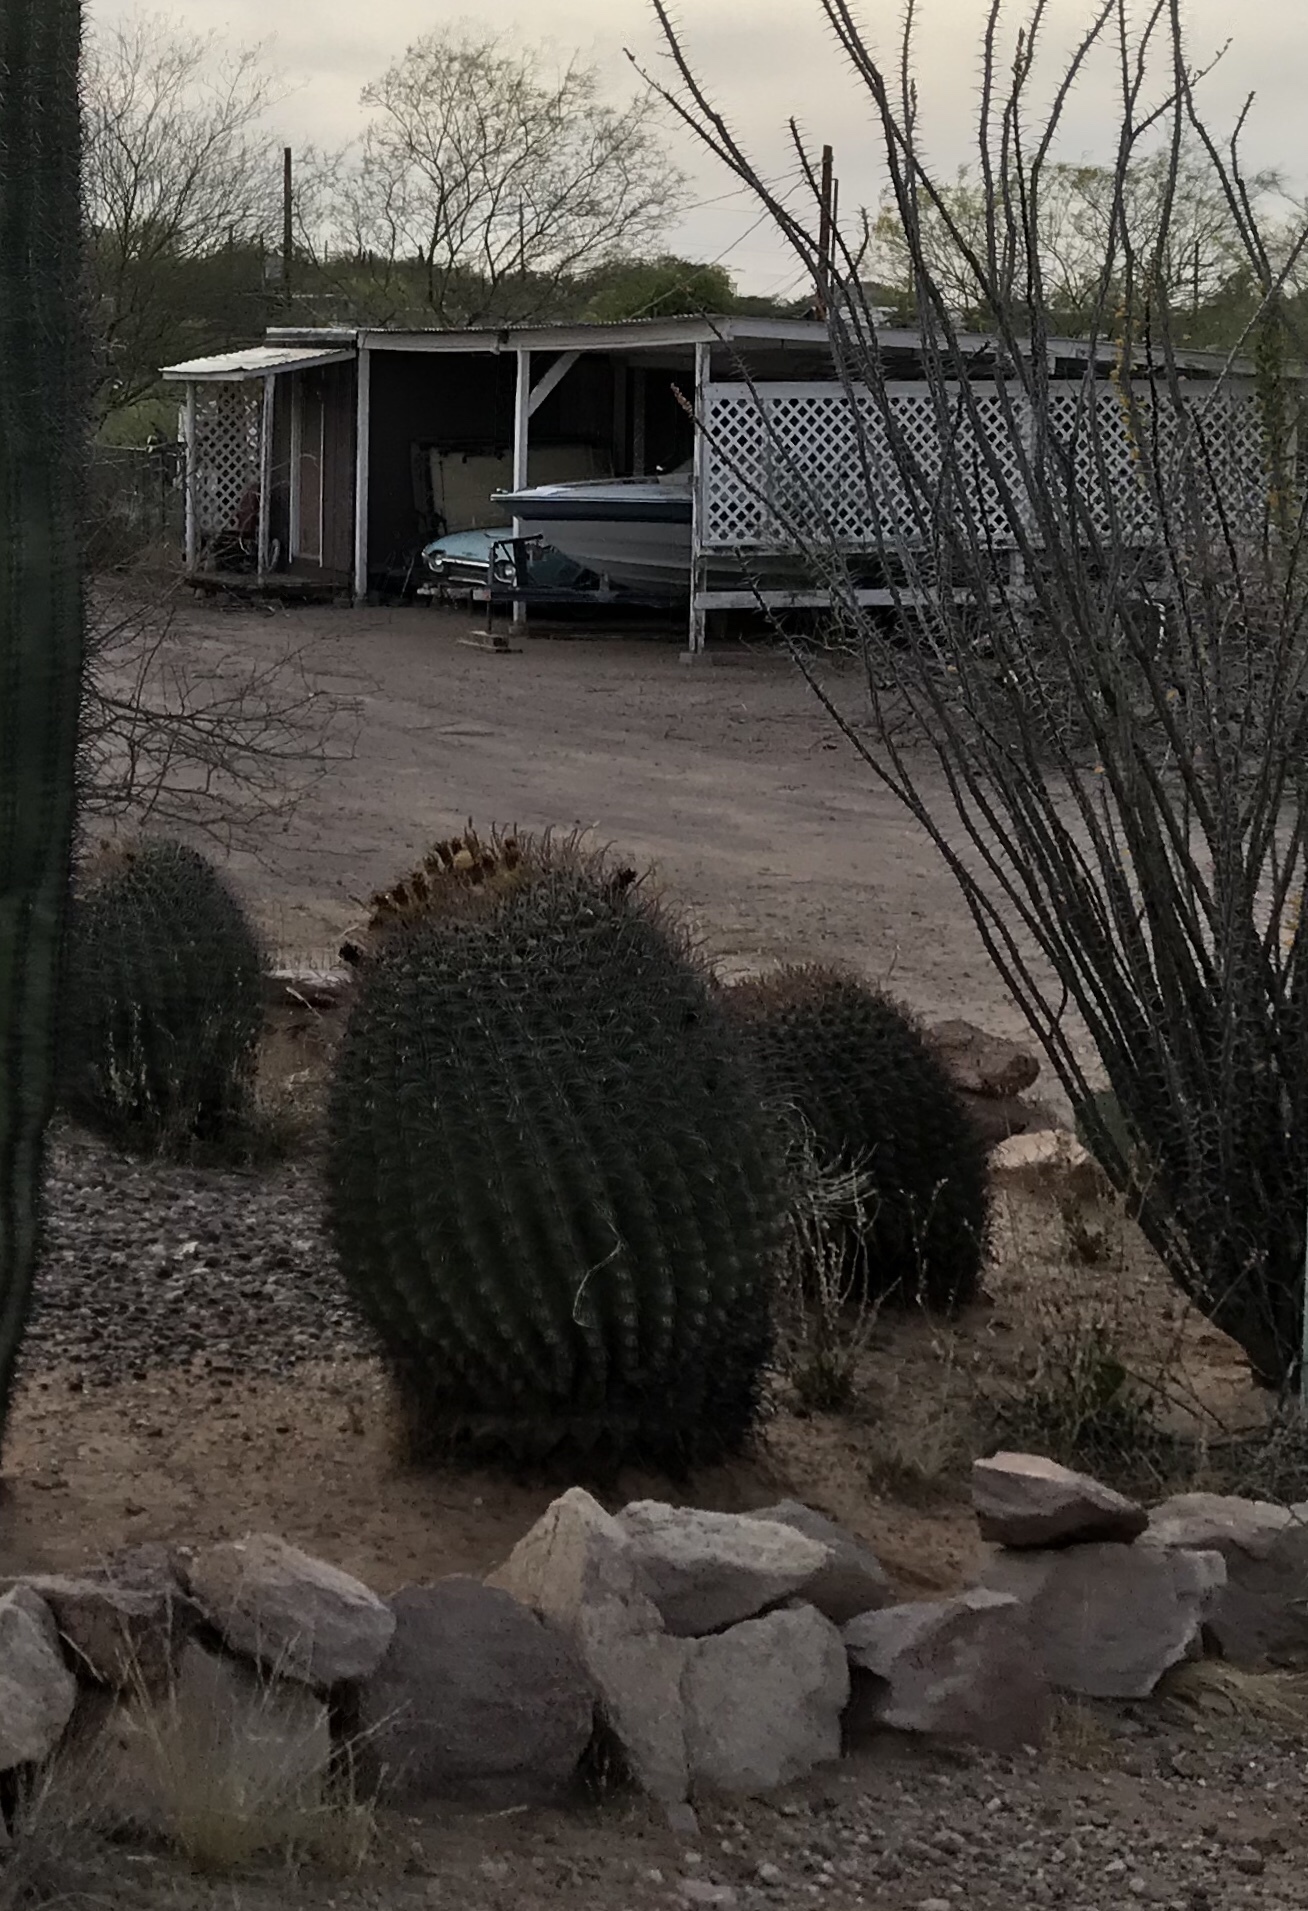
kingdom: Plantae
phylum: Tracheophyta
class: Magnoliopsida
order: Caryophyllales
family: Cactaceae
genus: Ferocactus
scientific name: Ferocactus wislizeni
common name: Candy barrel cactus
